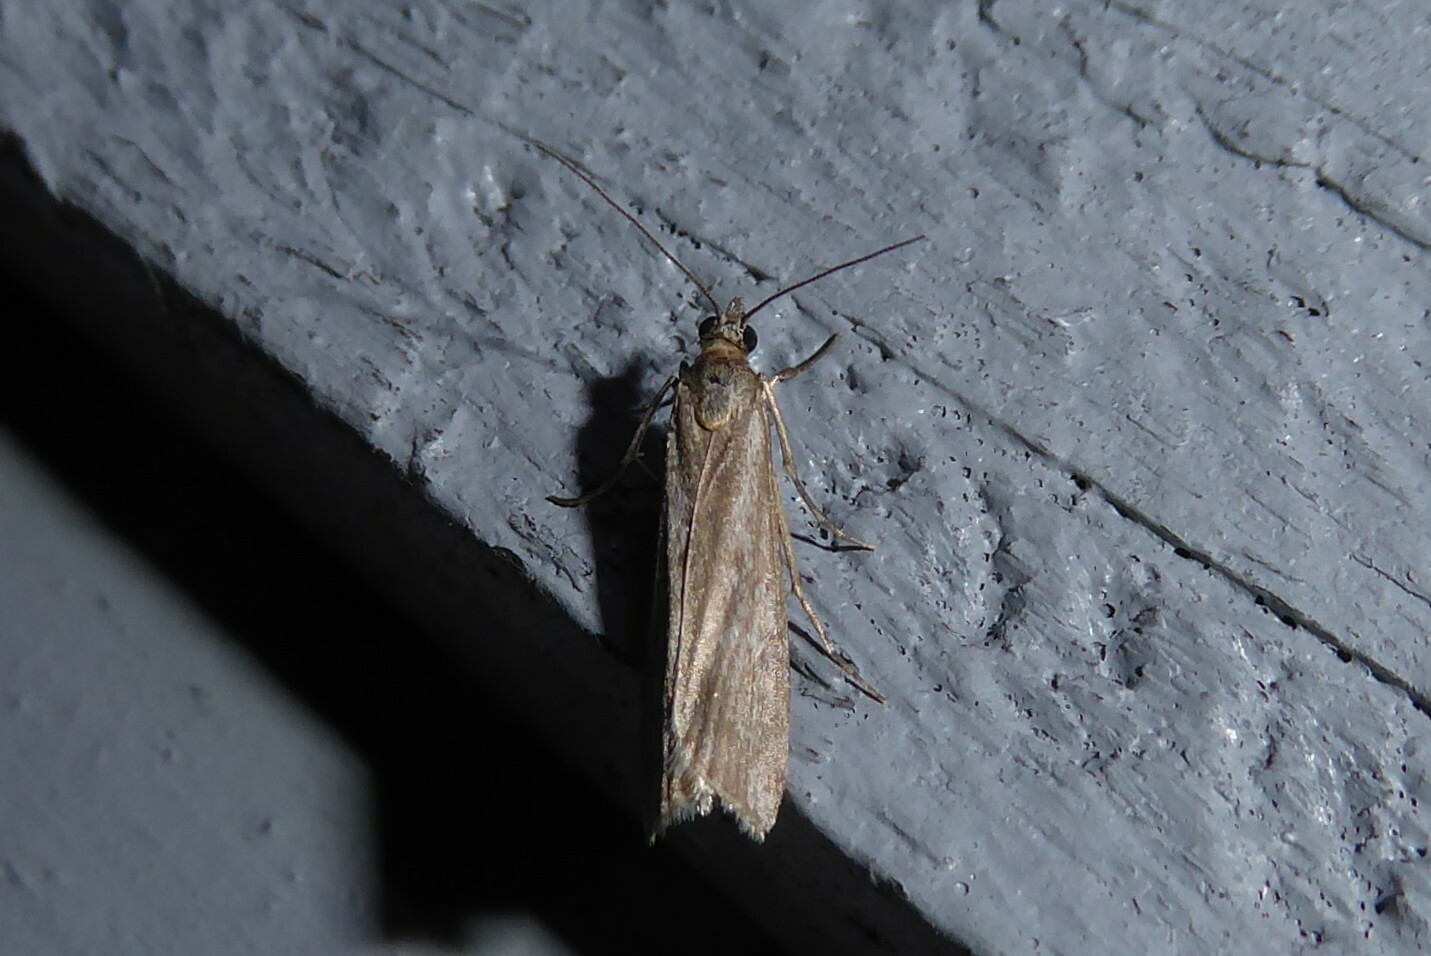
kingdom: Animalia
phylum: Arthropoda
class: Insecta
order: Lepidoptera
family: Crambidae
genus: Eudonia
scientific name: Eudonia leptalea
